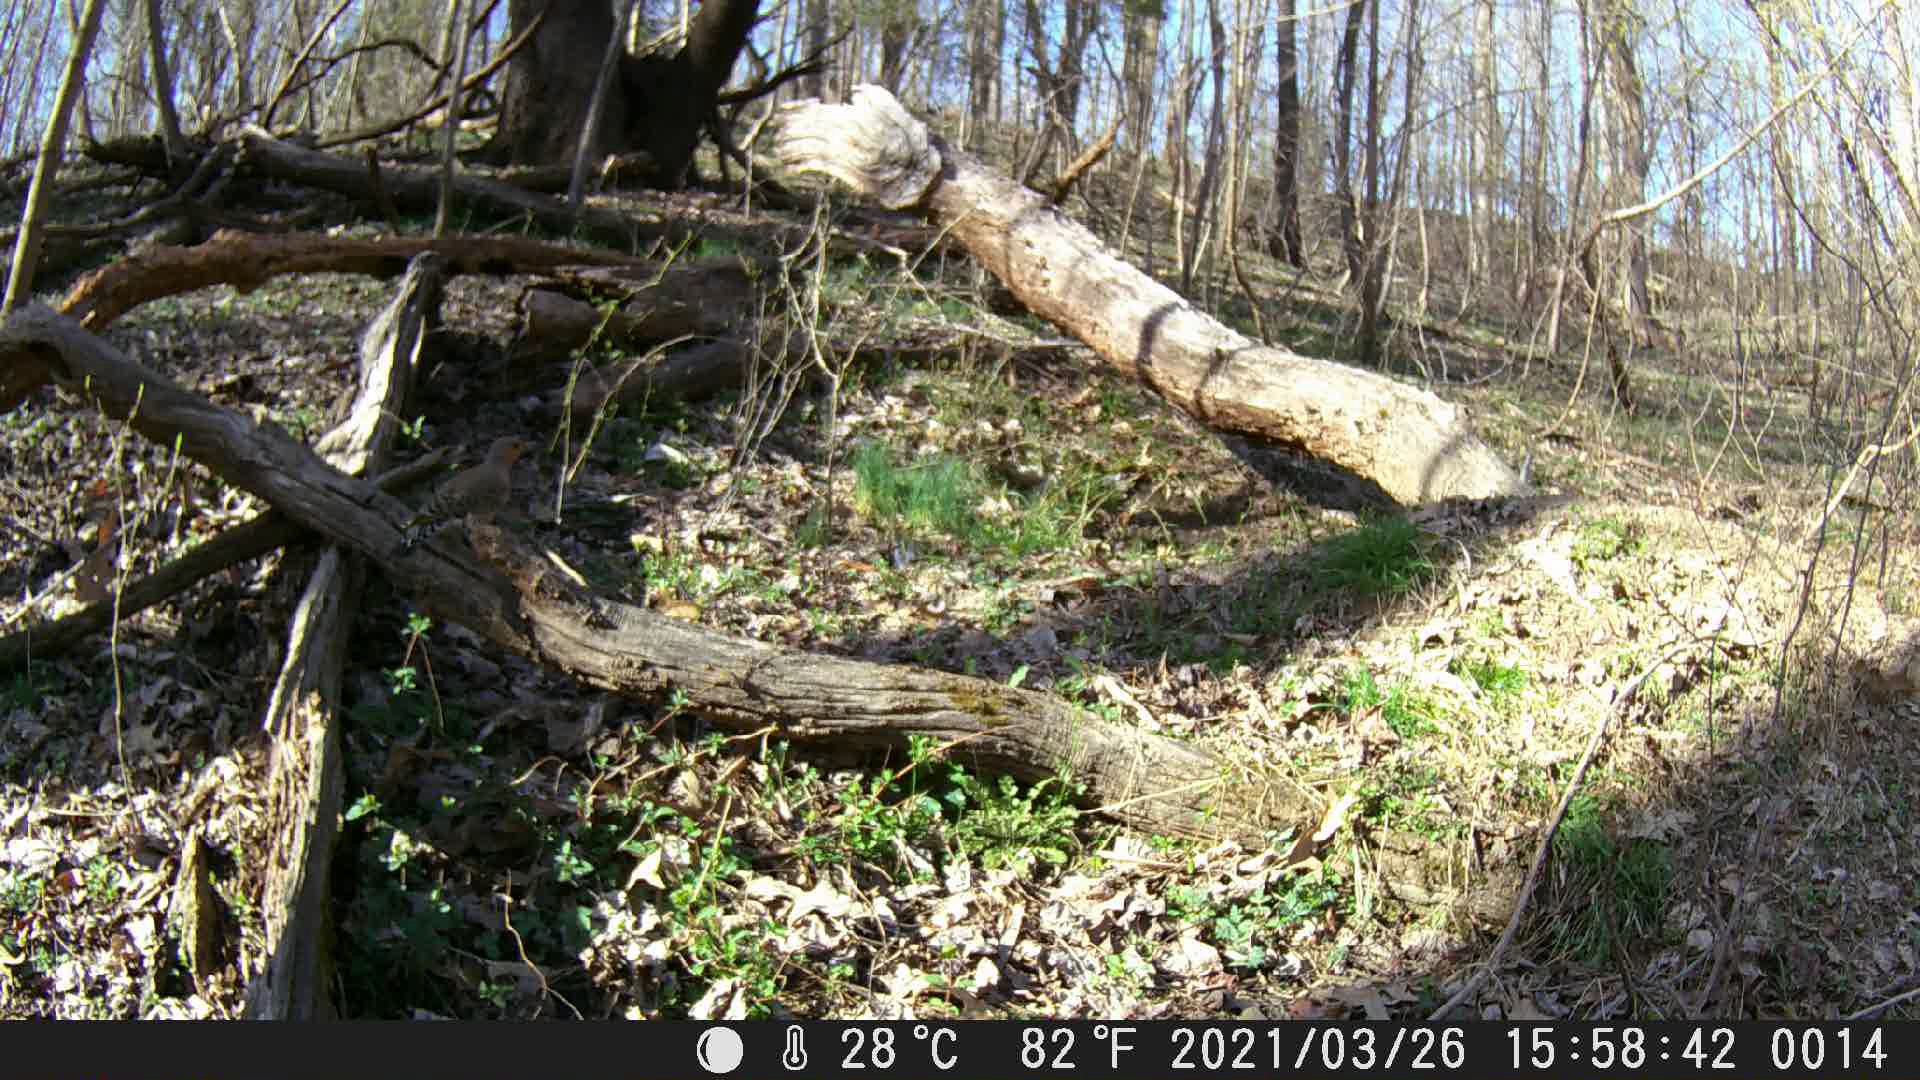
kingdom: Animalia
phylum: Chordata
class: Aves
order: Piciformes
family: Picidae
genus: Colaptes
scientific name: Colaptes auratus
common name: Northern flicker
